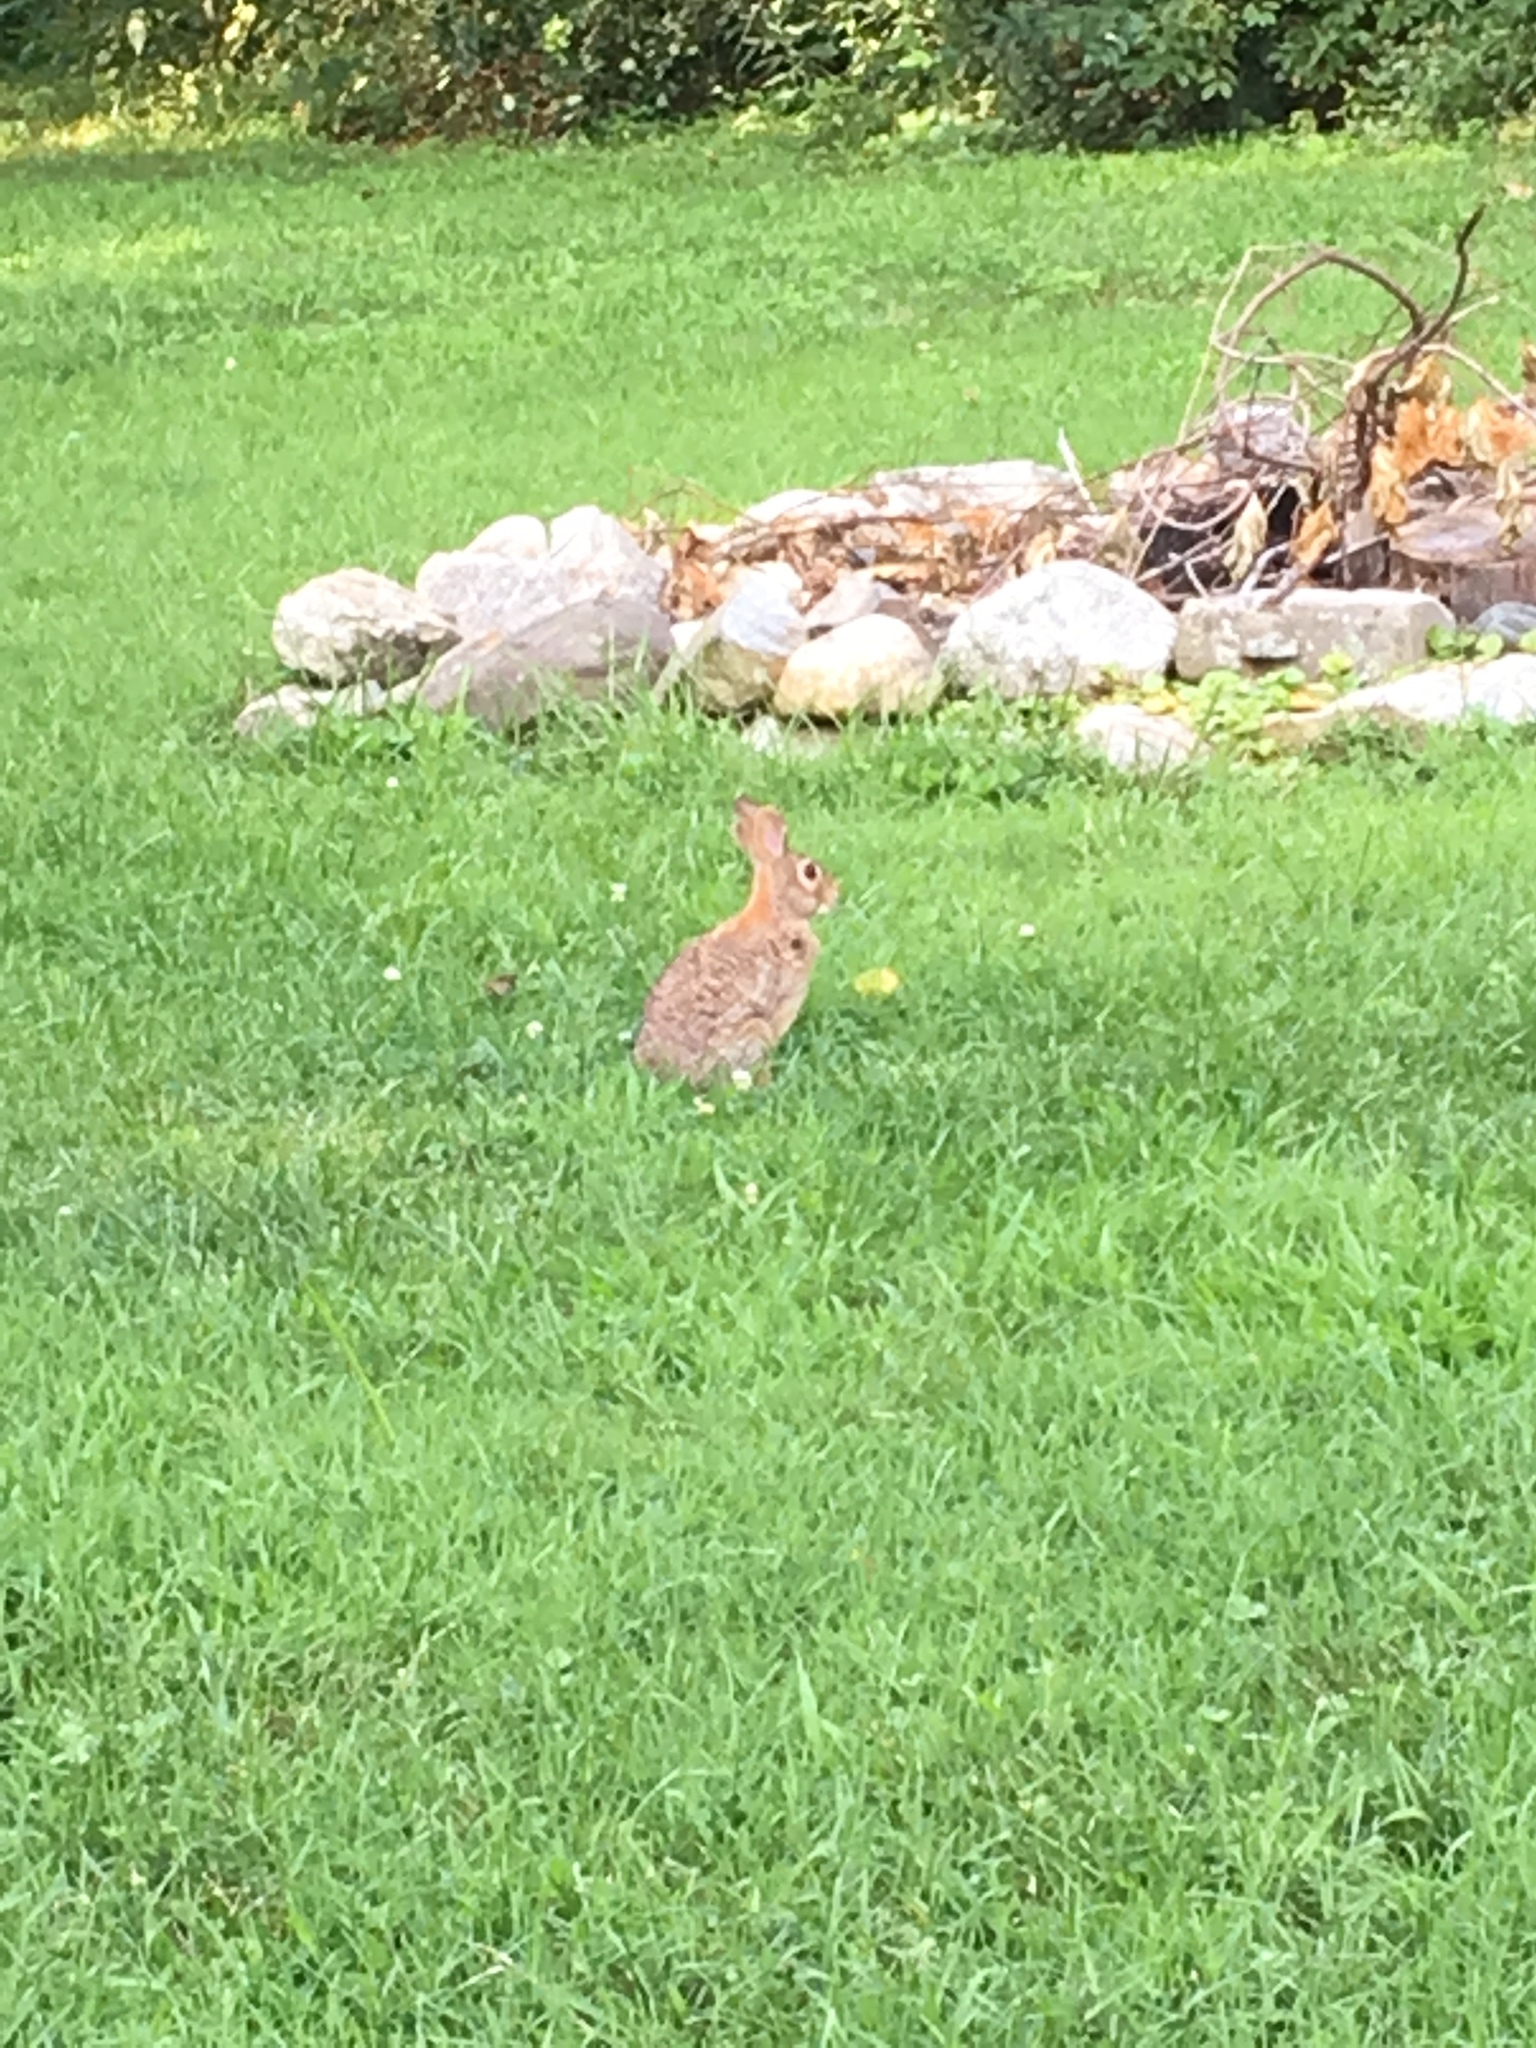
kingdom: Animalia
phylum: Chordata
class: Mammalia
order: Lagomorpha
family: Leporidae
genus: Sylvilagus
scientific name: Sylvilagus floridanus
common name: Eastern cottontail
